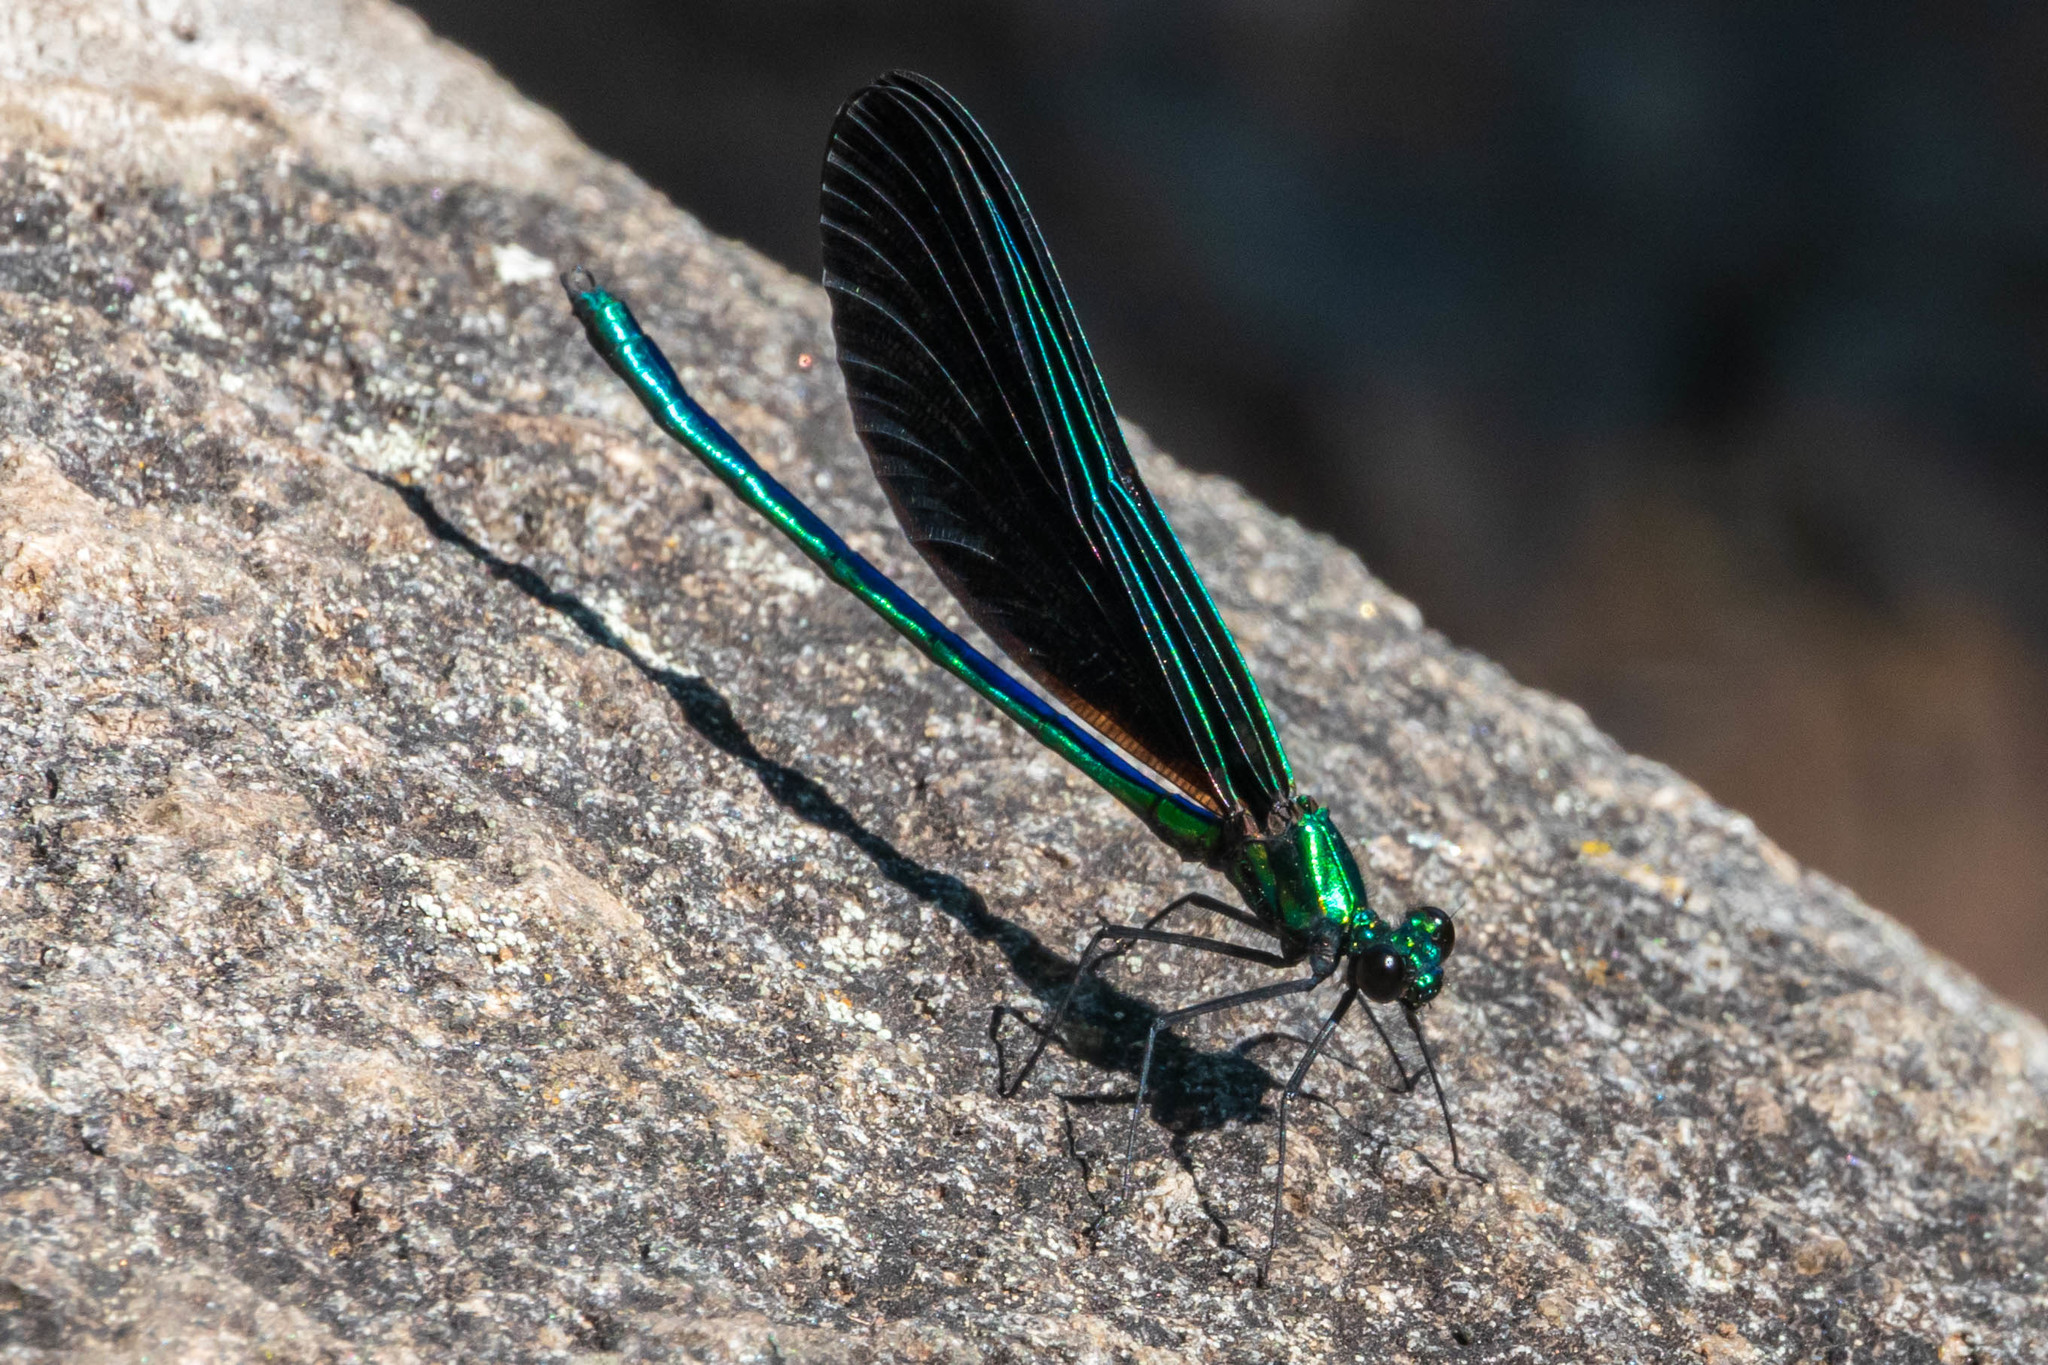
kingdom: Animalia
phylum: Arthropoda
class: Insecta
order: Odonata
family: Calopterygidae
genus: Calopteryx
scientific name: Calopteryx maculata
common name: Ebony jewelwing
